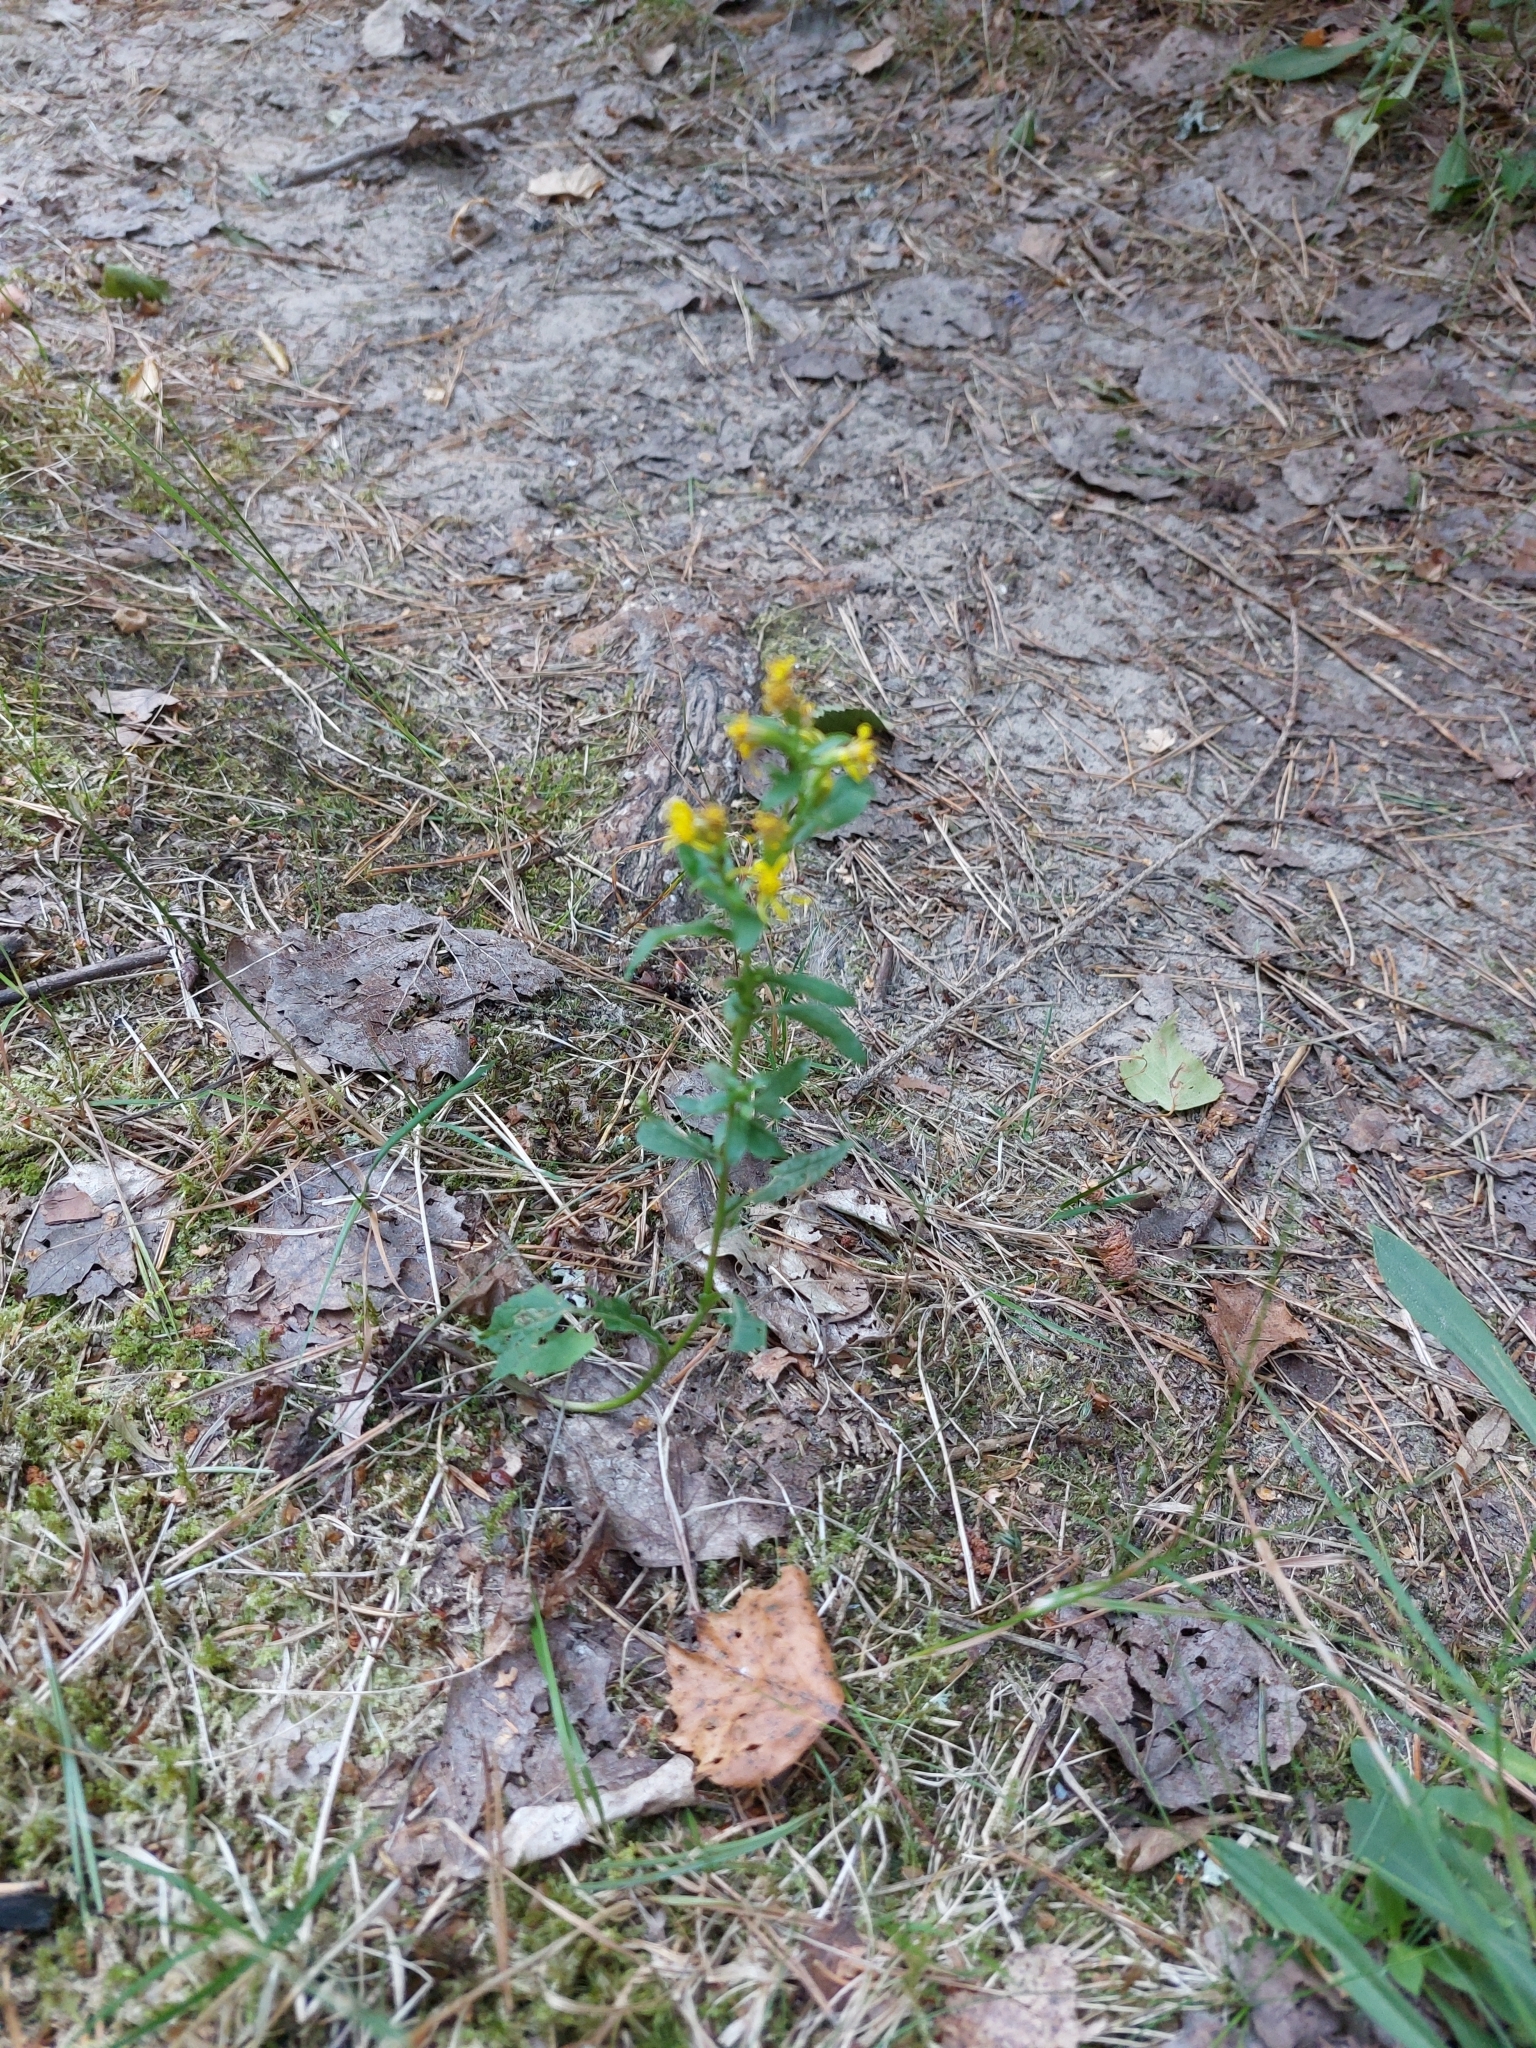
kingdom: Plantae
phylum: Tracheophyta
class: Magnoliopsida
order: Asterales
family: Asteraceae
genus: Solidago
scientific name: Solidago virgaurea
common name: Goldenrod
